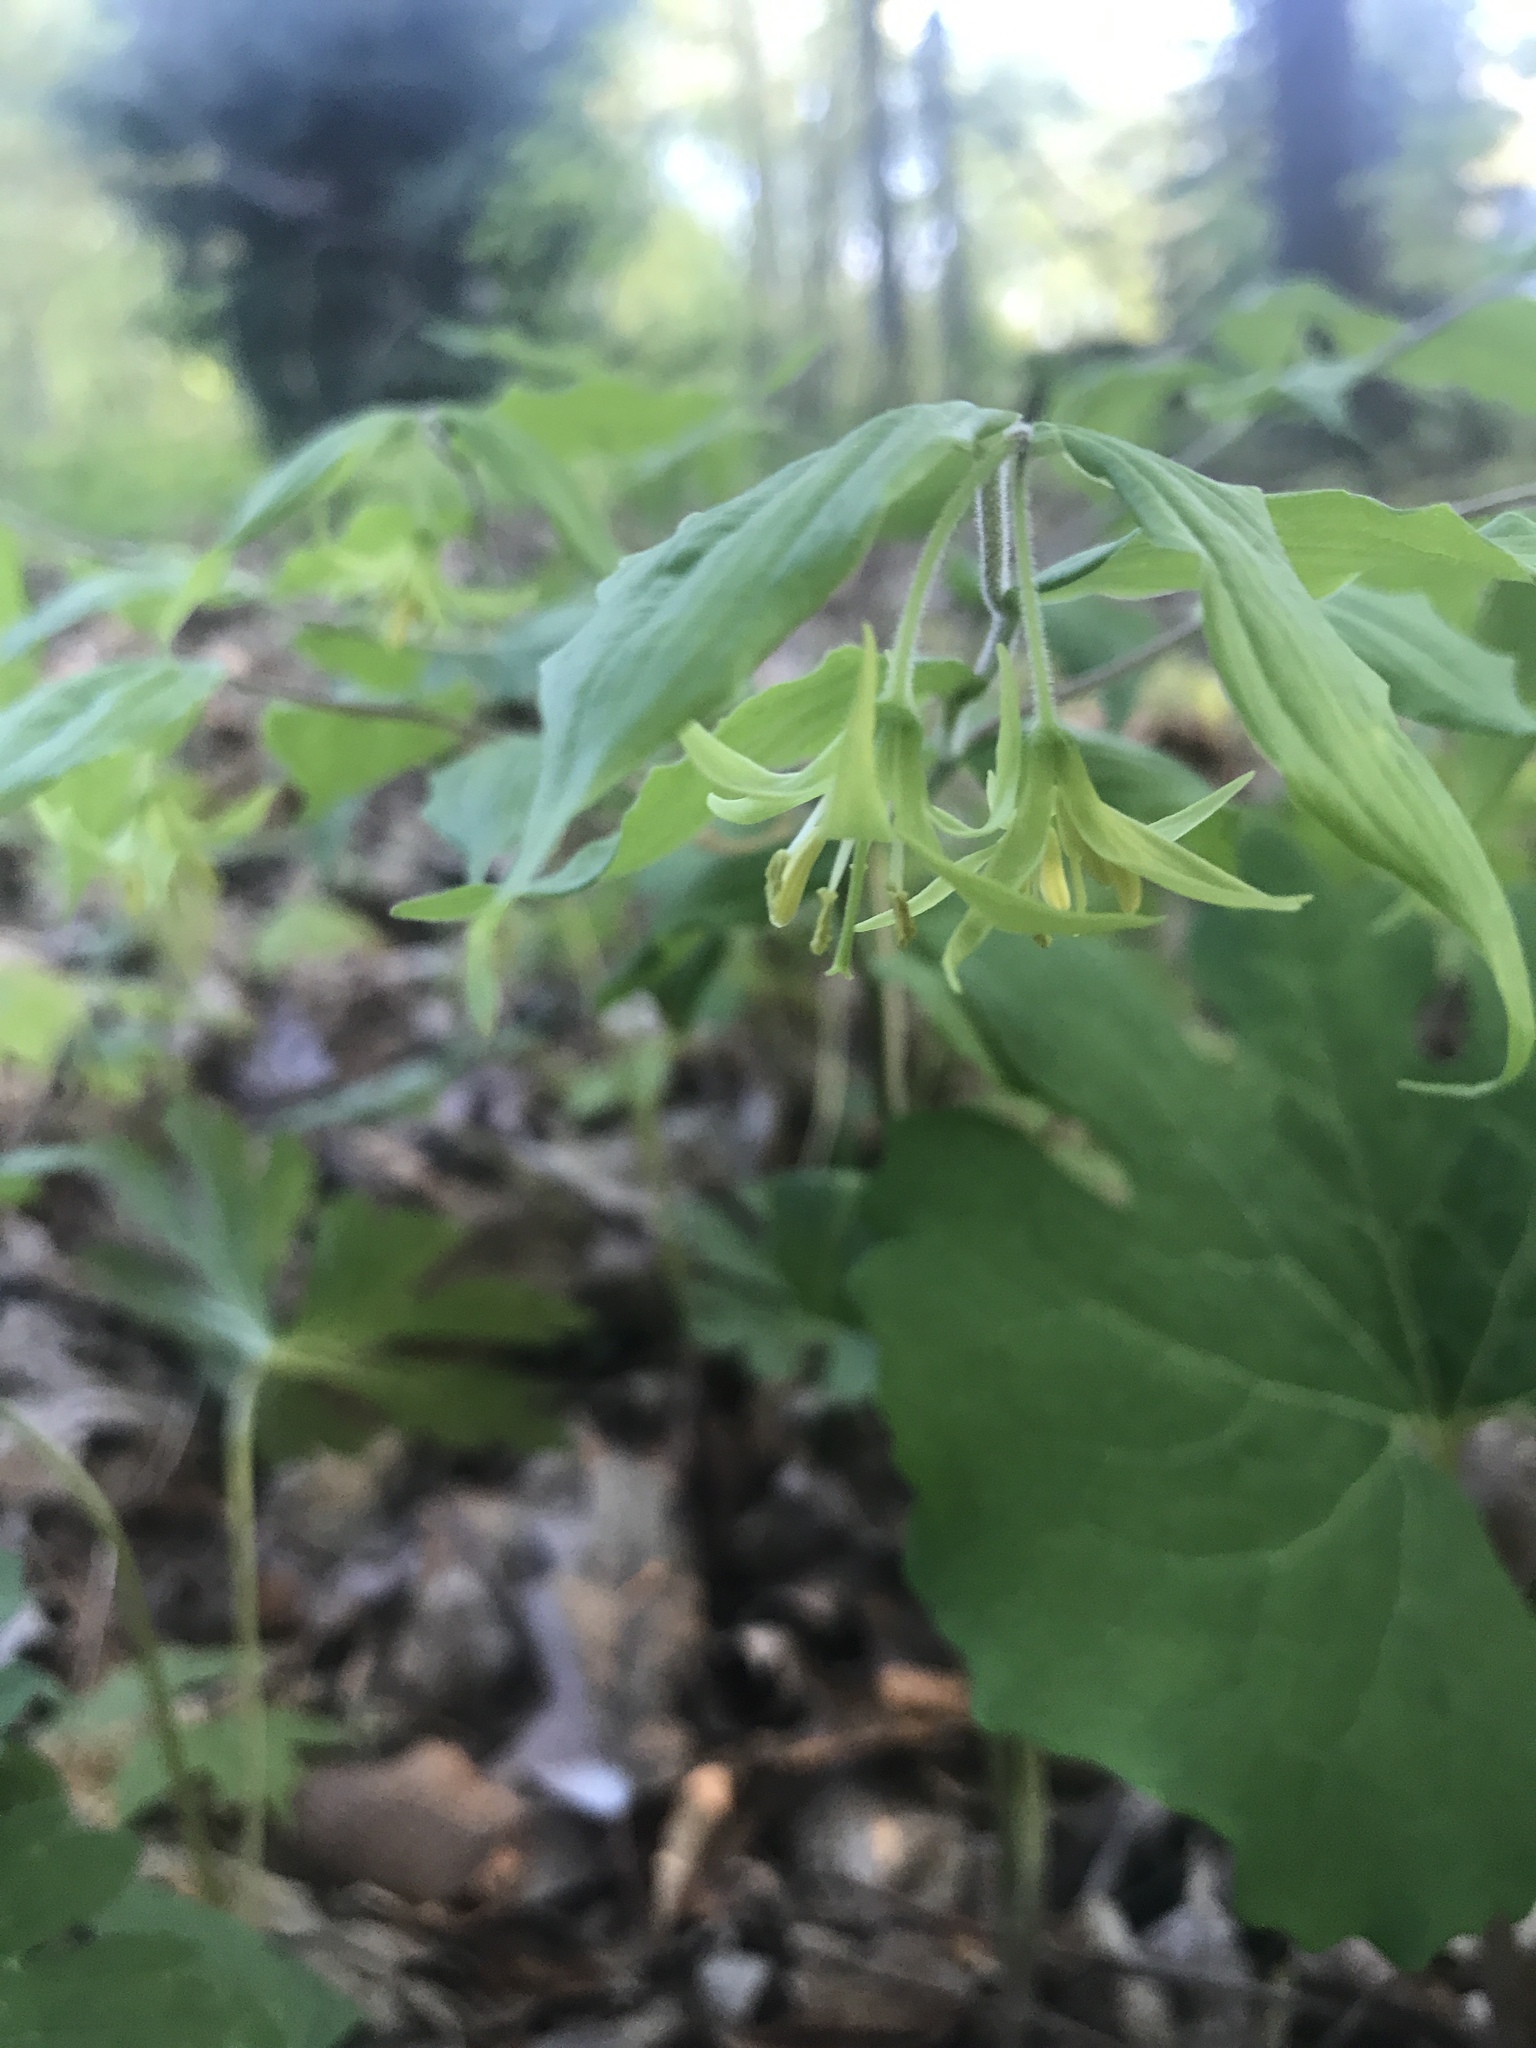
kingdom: Plantae
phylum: Tracheophyta
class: Liliopsida
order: Liliales
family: Liliaceae
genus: Prosartes
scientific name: Prosartes lanuginosa
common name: Hairy mandarin
